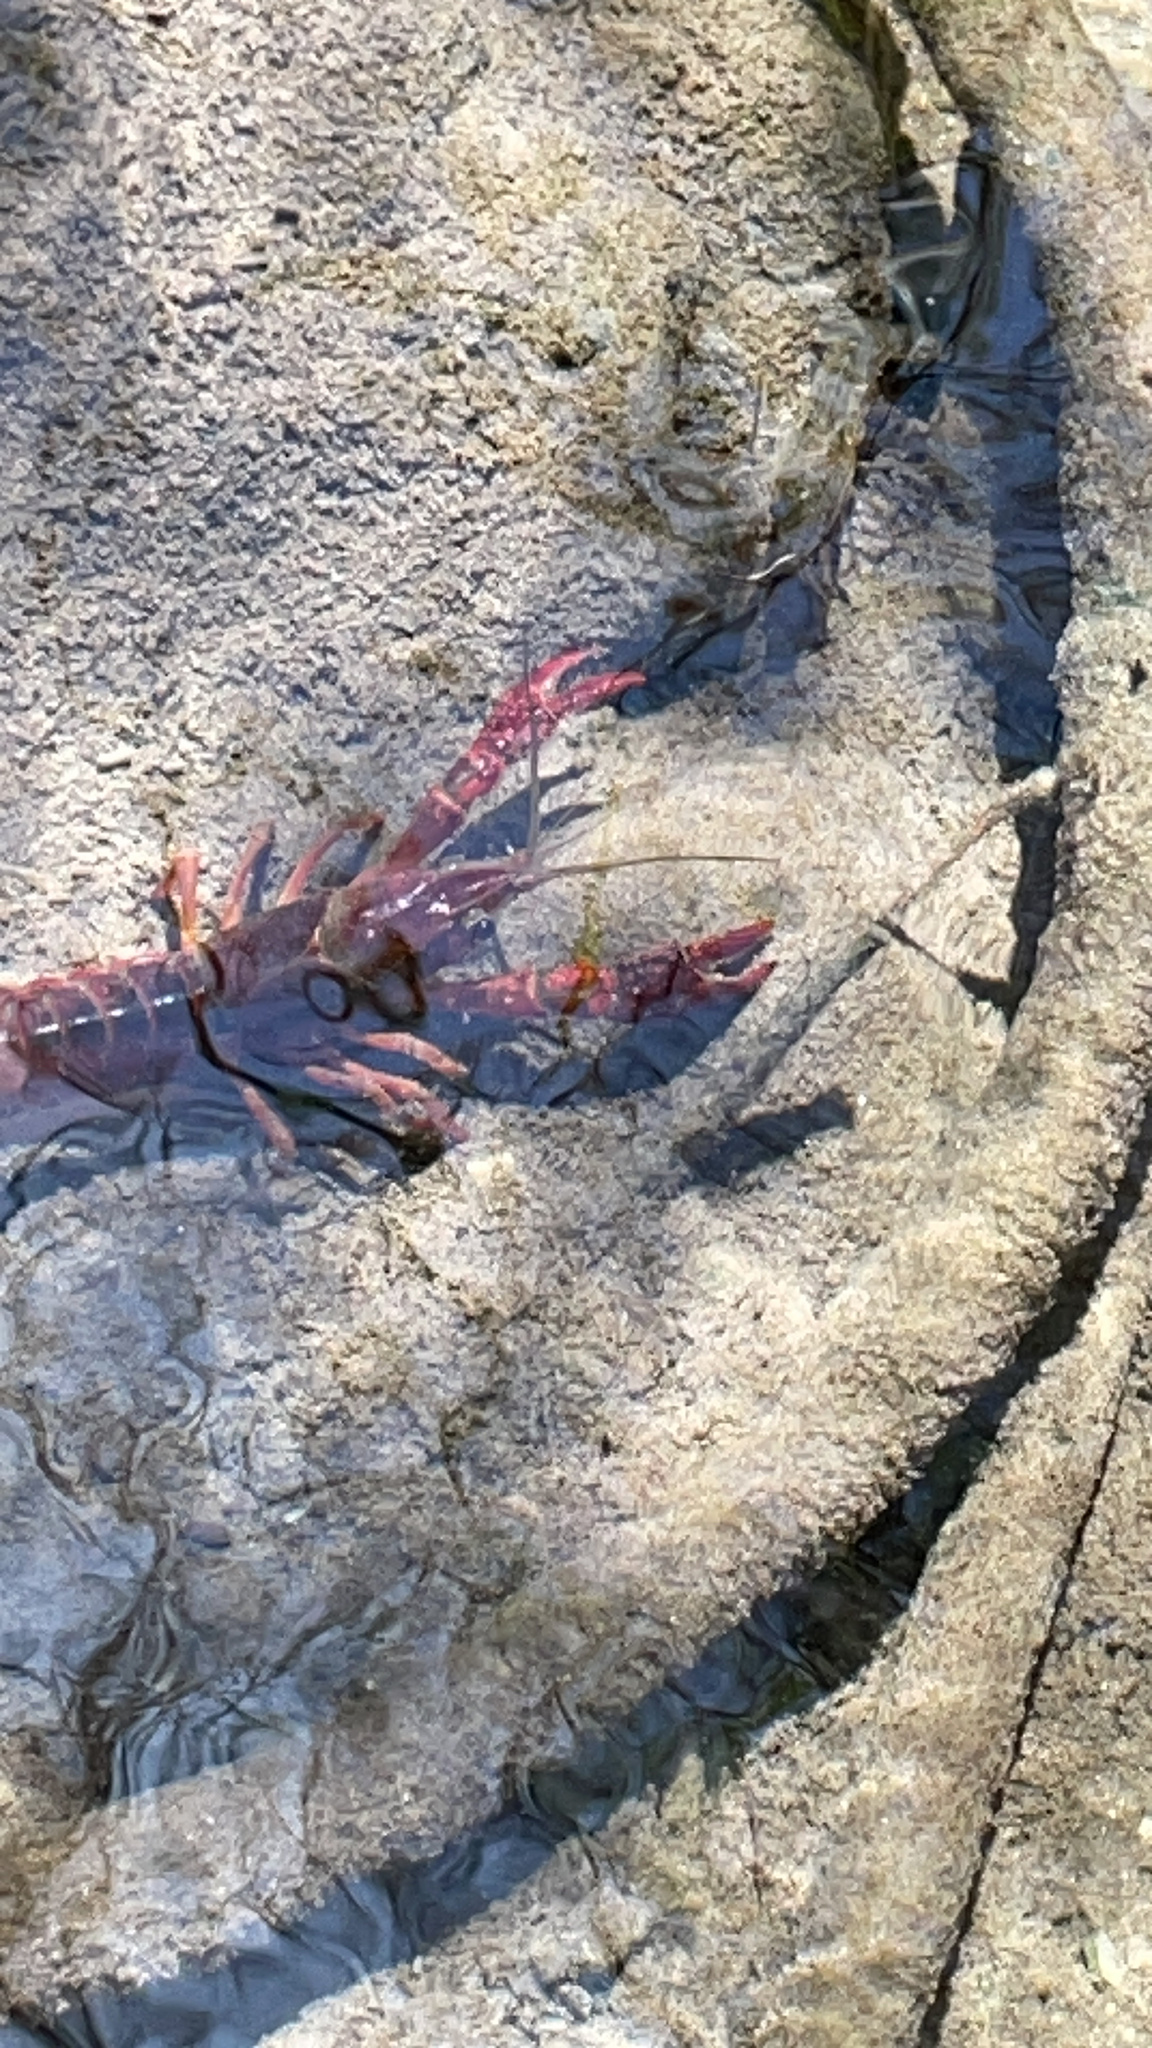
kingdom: Animalia
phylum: Arthropoda
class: Malacostraca
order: Decapoda
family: Cambaridae
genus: Procambarus
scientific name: Procambarus clarkii
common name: Red swamp crayfish
